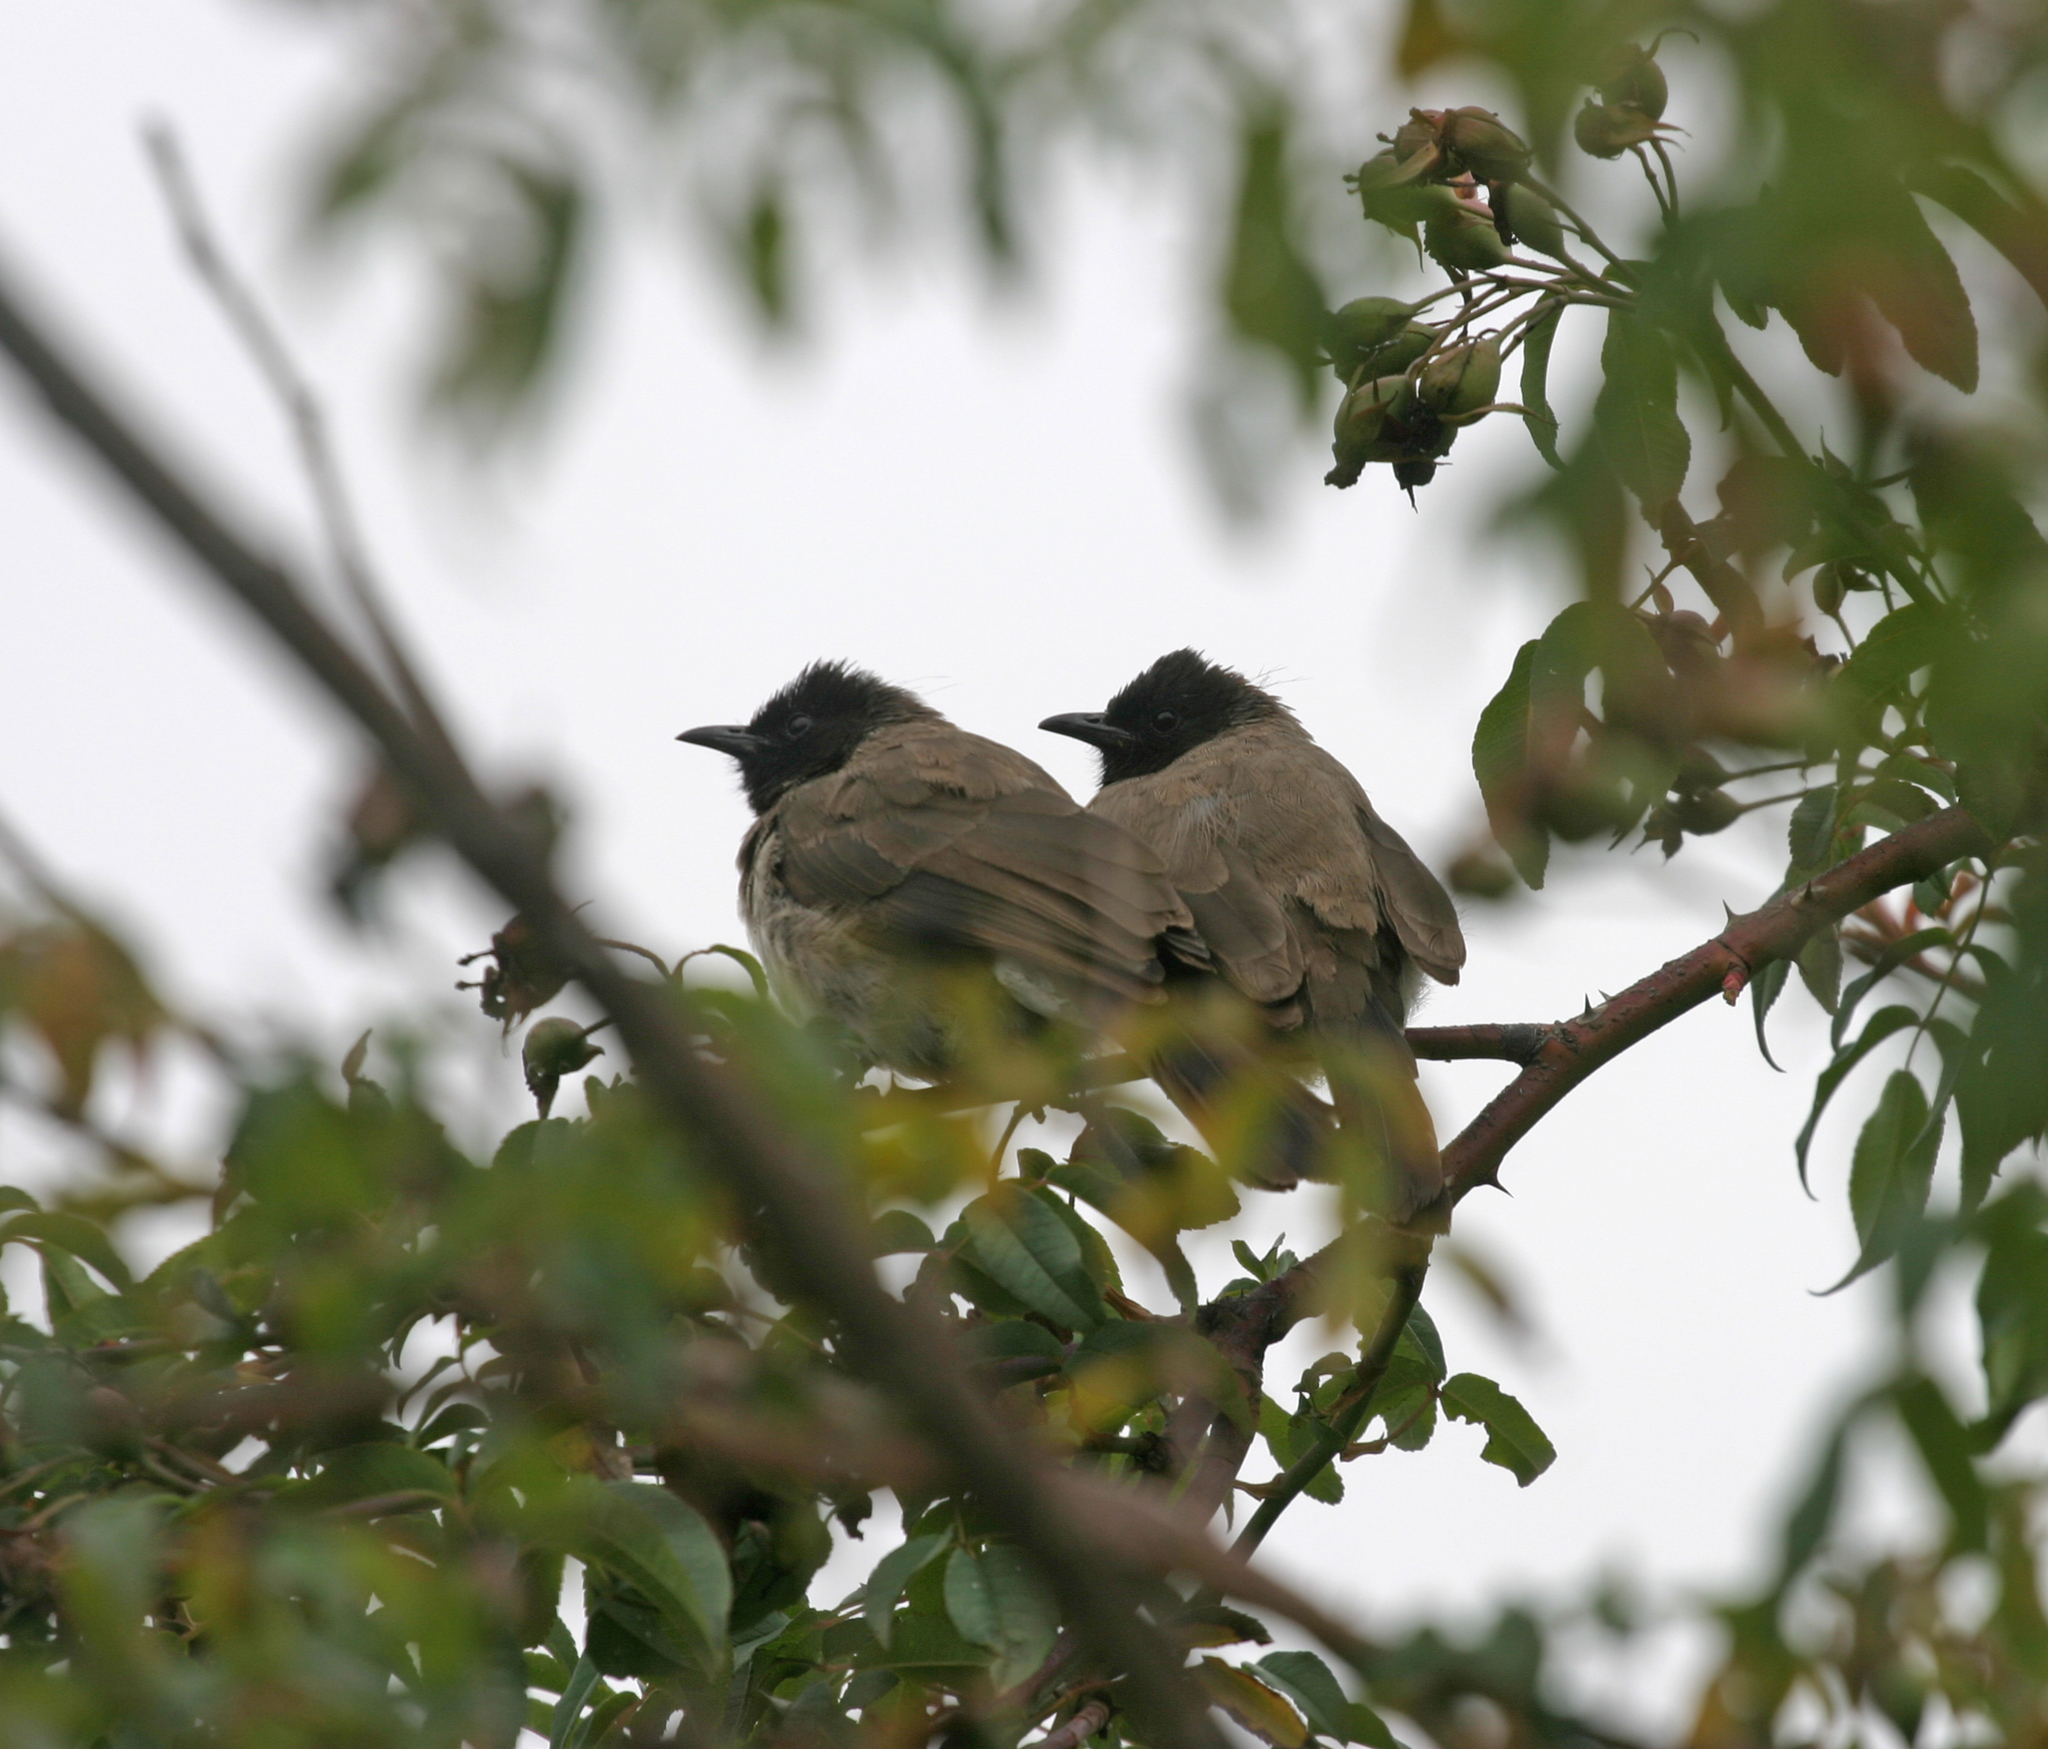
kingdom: Animalia
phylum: Chordata
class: Aves
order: Passeriformes
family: Pycnonotidae
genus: Pycnonotus
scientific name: Pycnonotus barbatus
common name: Common bulbul
